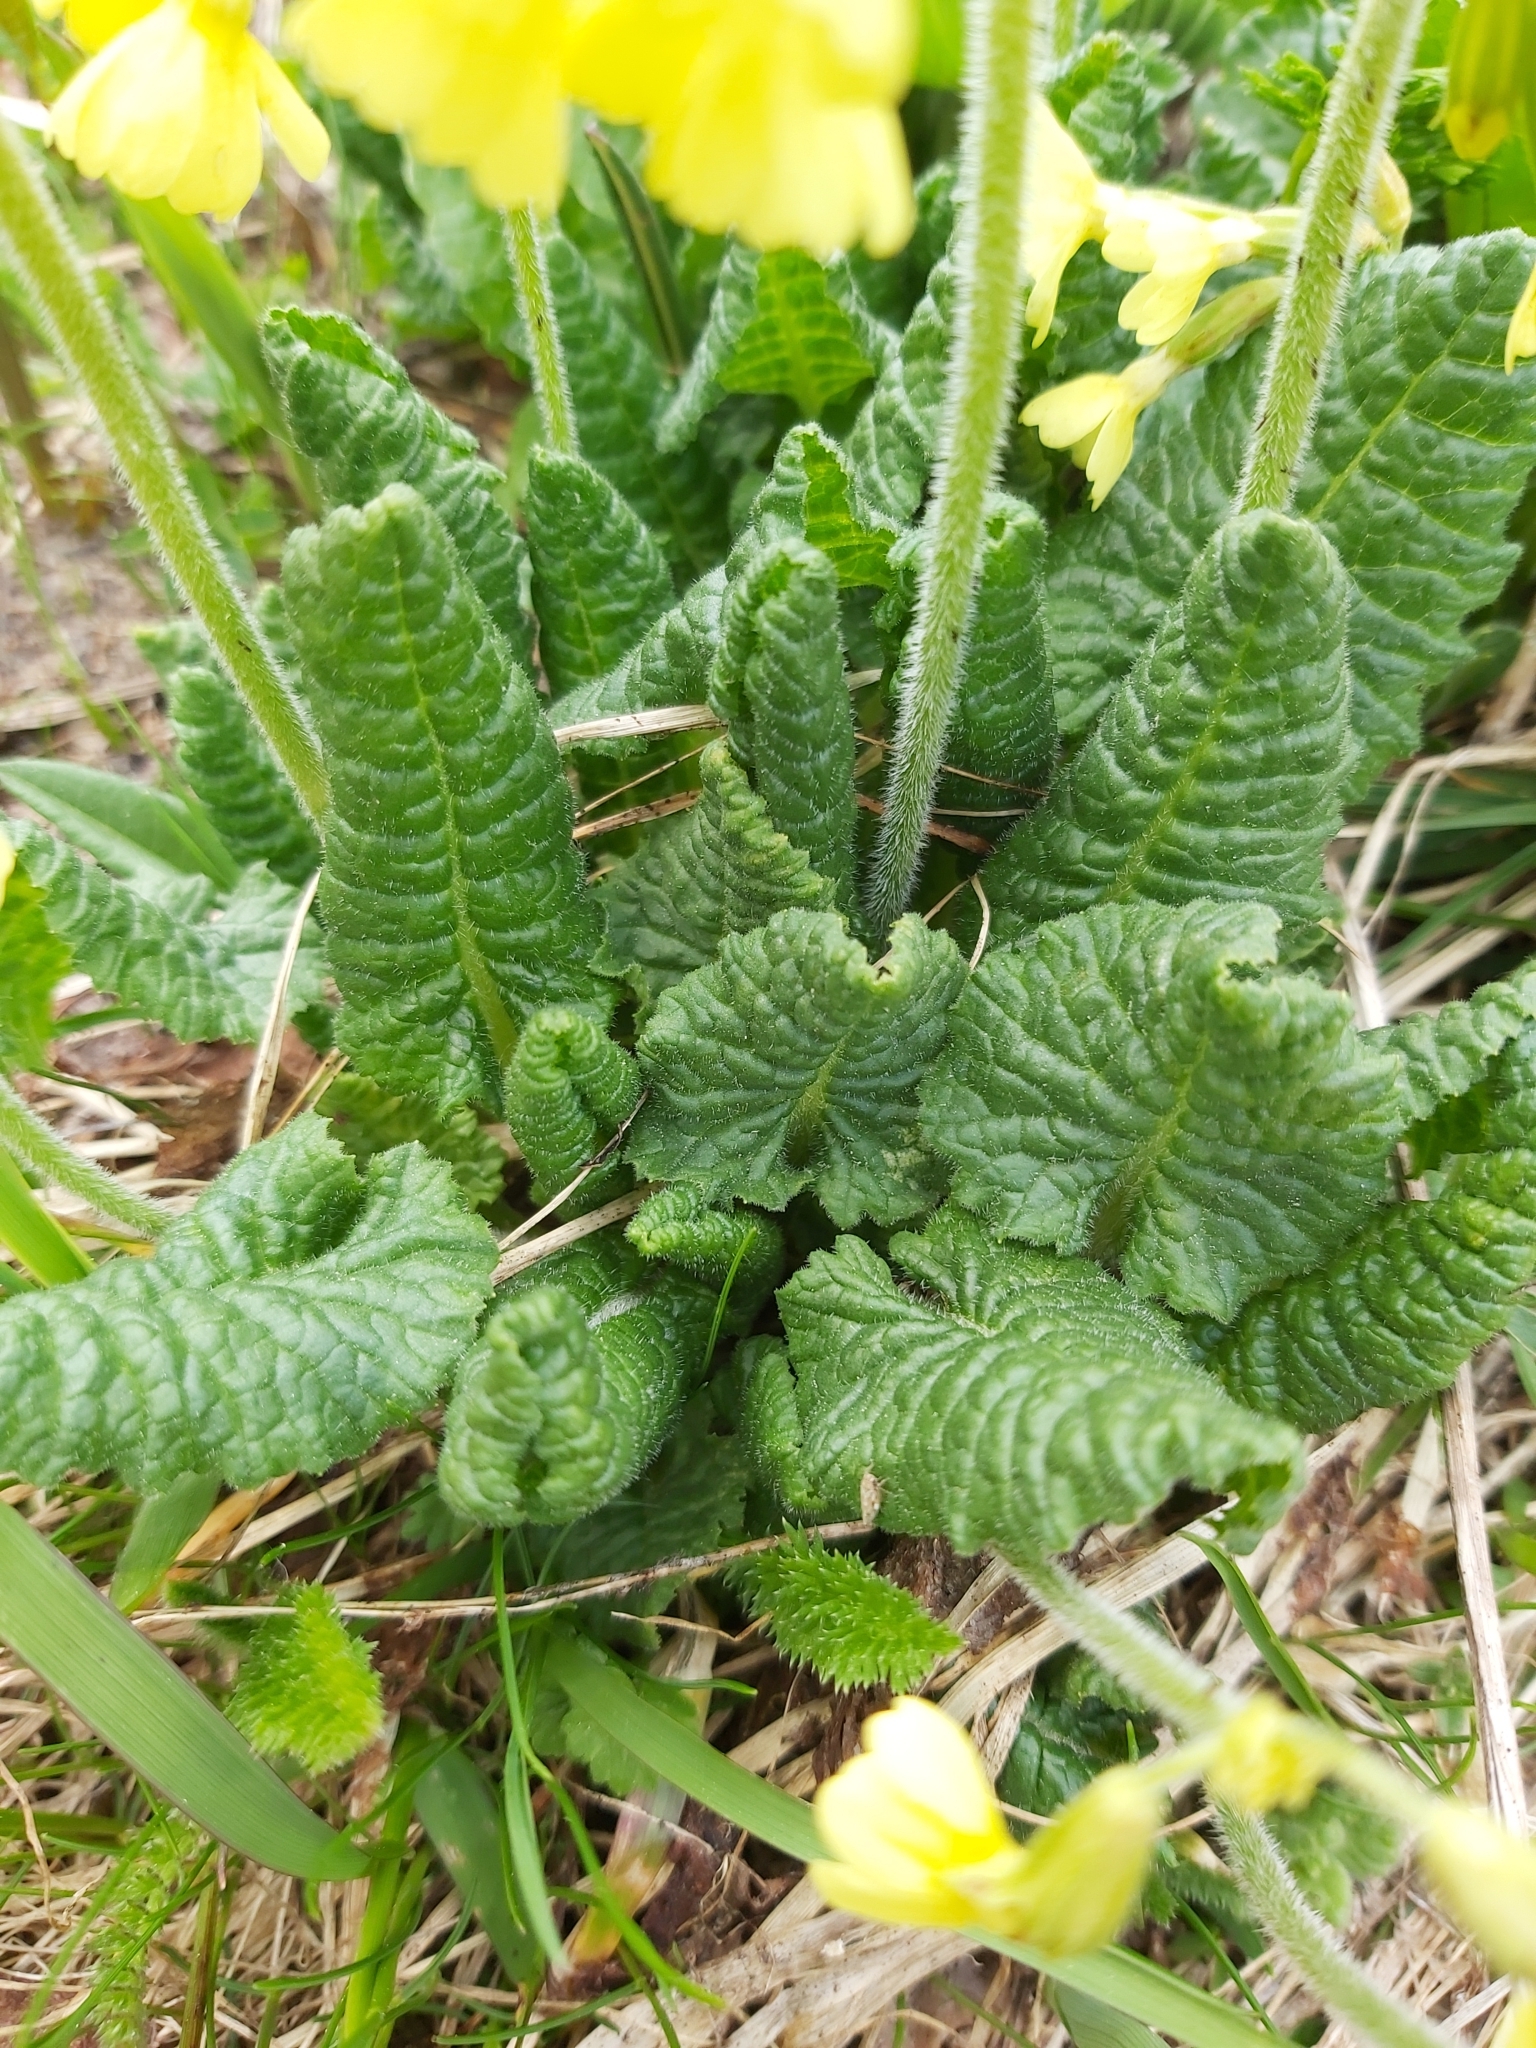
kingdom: Plantae
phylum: Tracheophyta
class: Magnoliopsida
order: Ericales
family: Primulaceae
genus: Primula
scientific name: Primula elatior
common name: Oxlip
